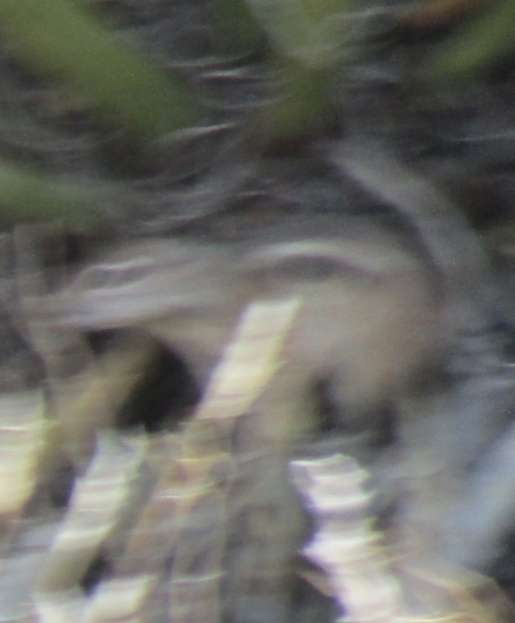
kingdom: Animalia
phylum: Chordata
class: Mammalia
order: Rodentia
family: Sciuridae
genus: Ammospermophilus
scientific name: Ammospermophilus leucurus
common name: White-tailed antelope squirrel
